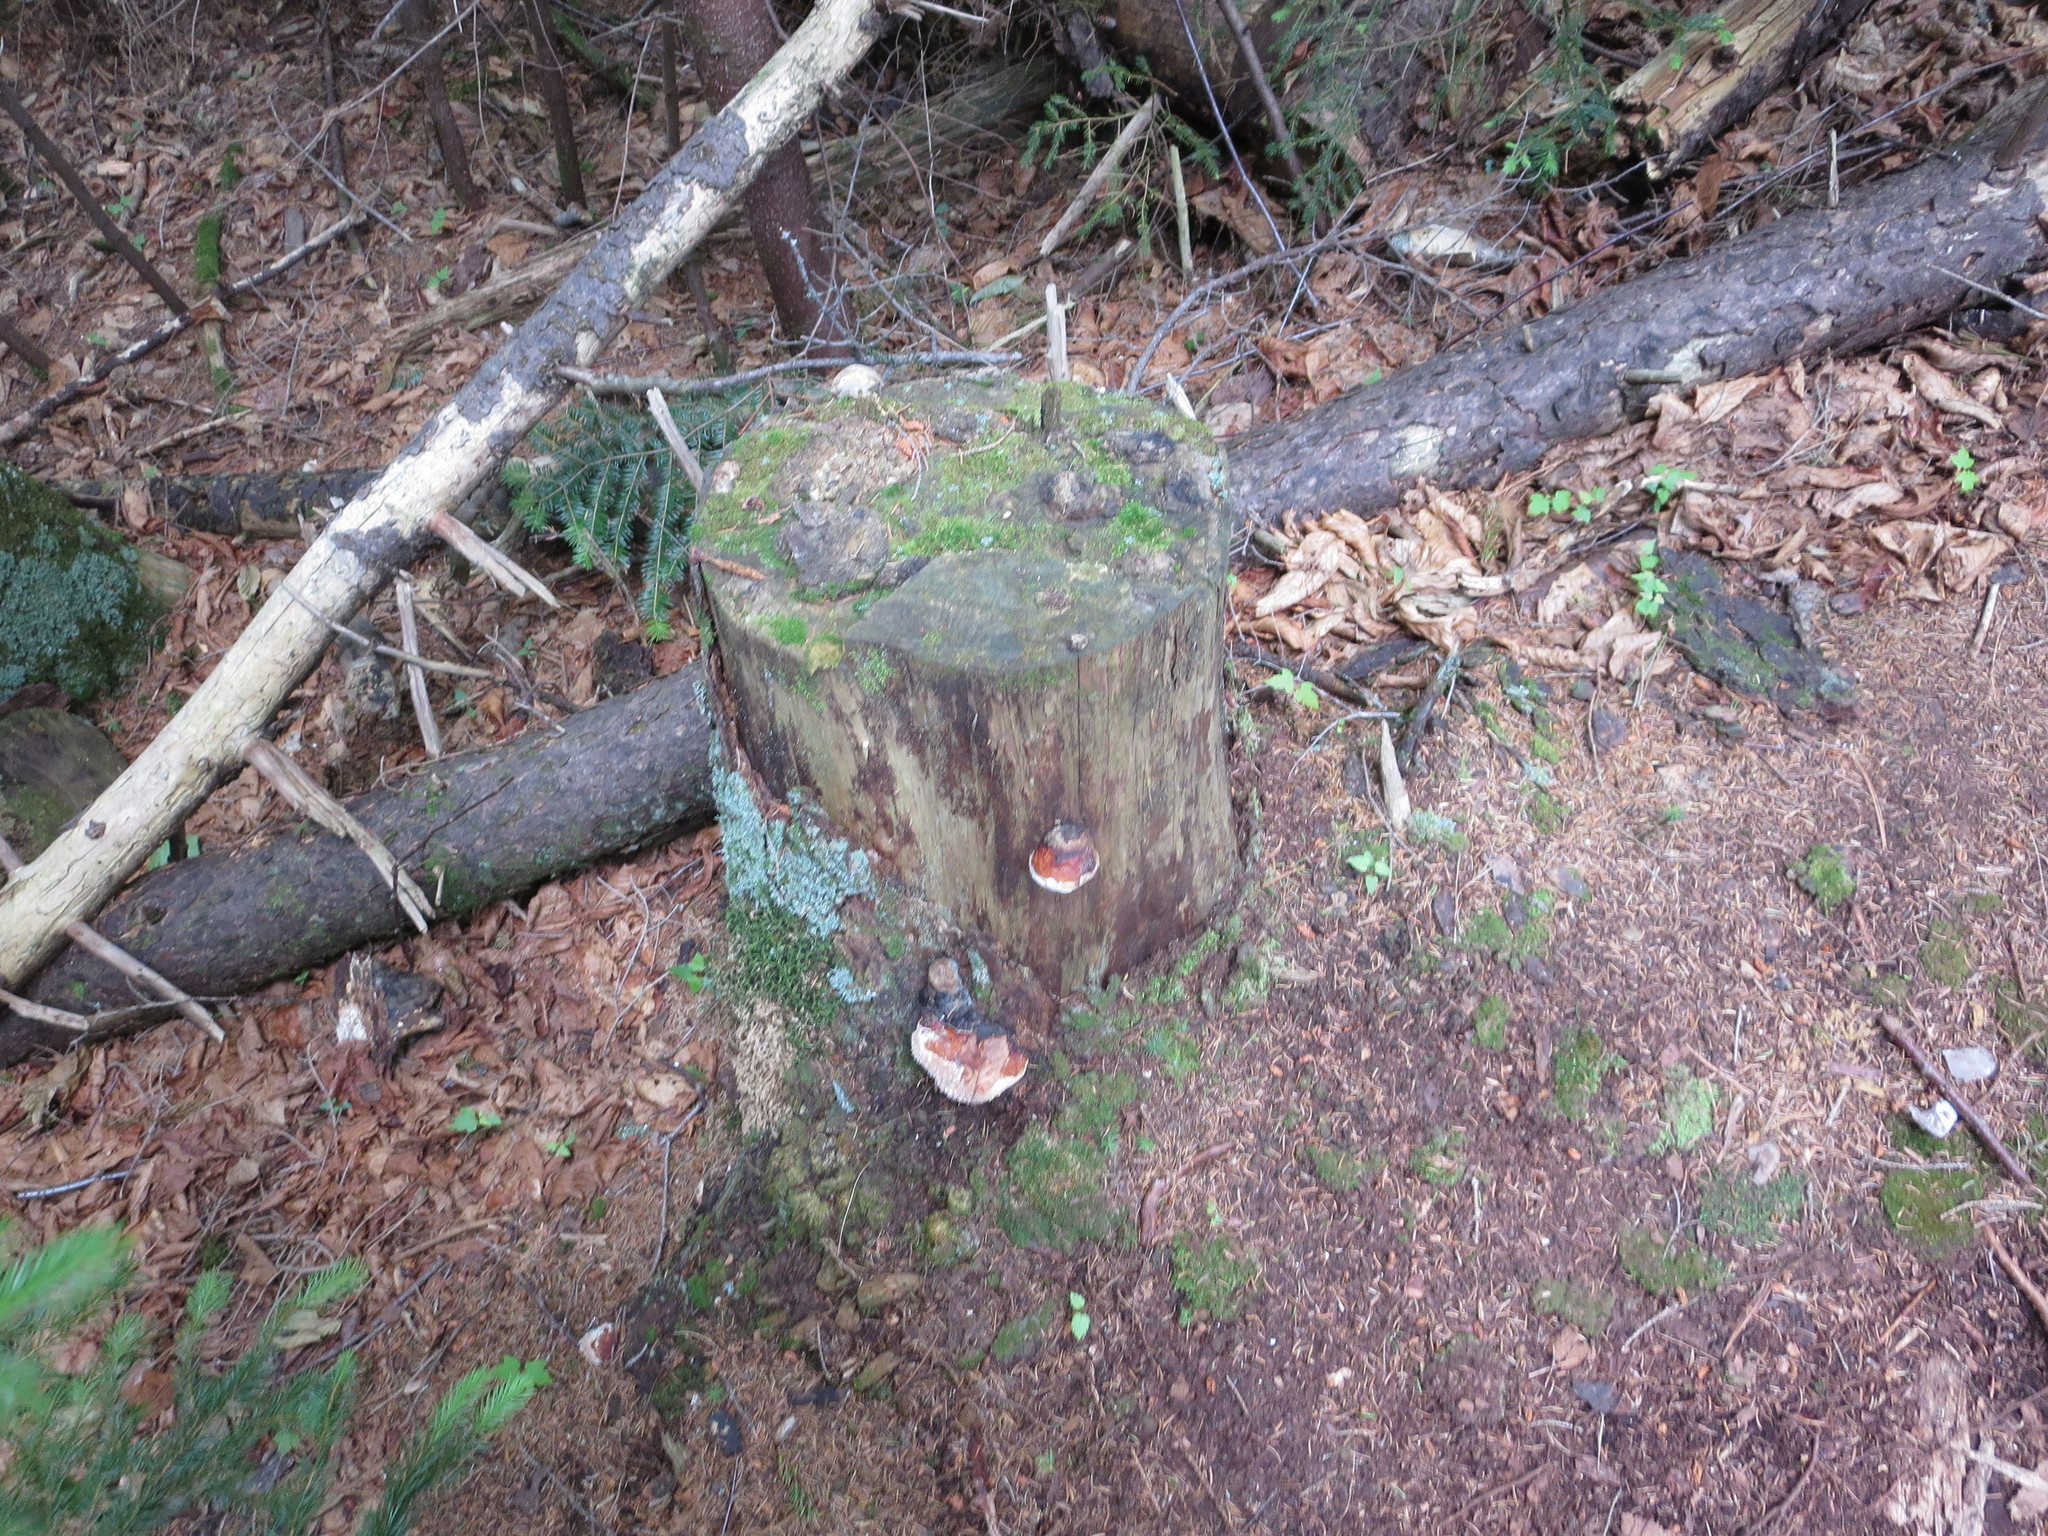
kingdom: Fungi
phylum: Basidiomycota
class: Agaricomycetes
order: Polyporales
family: Fomitopsidaceae
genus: Fomitopsis
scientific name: Fomitopsis mounceae
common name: Northern red belt
